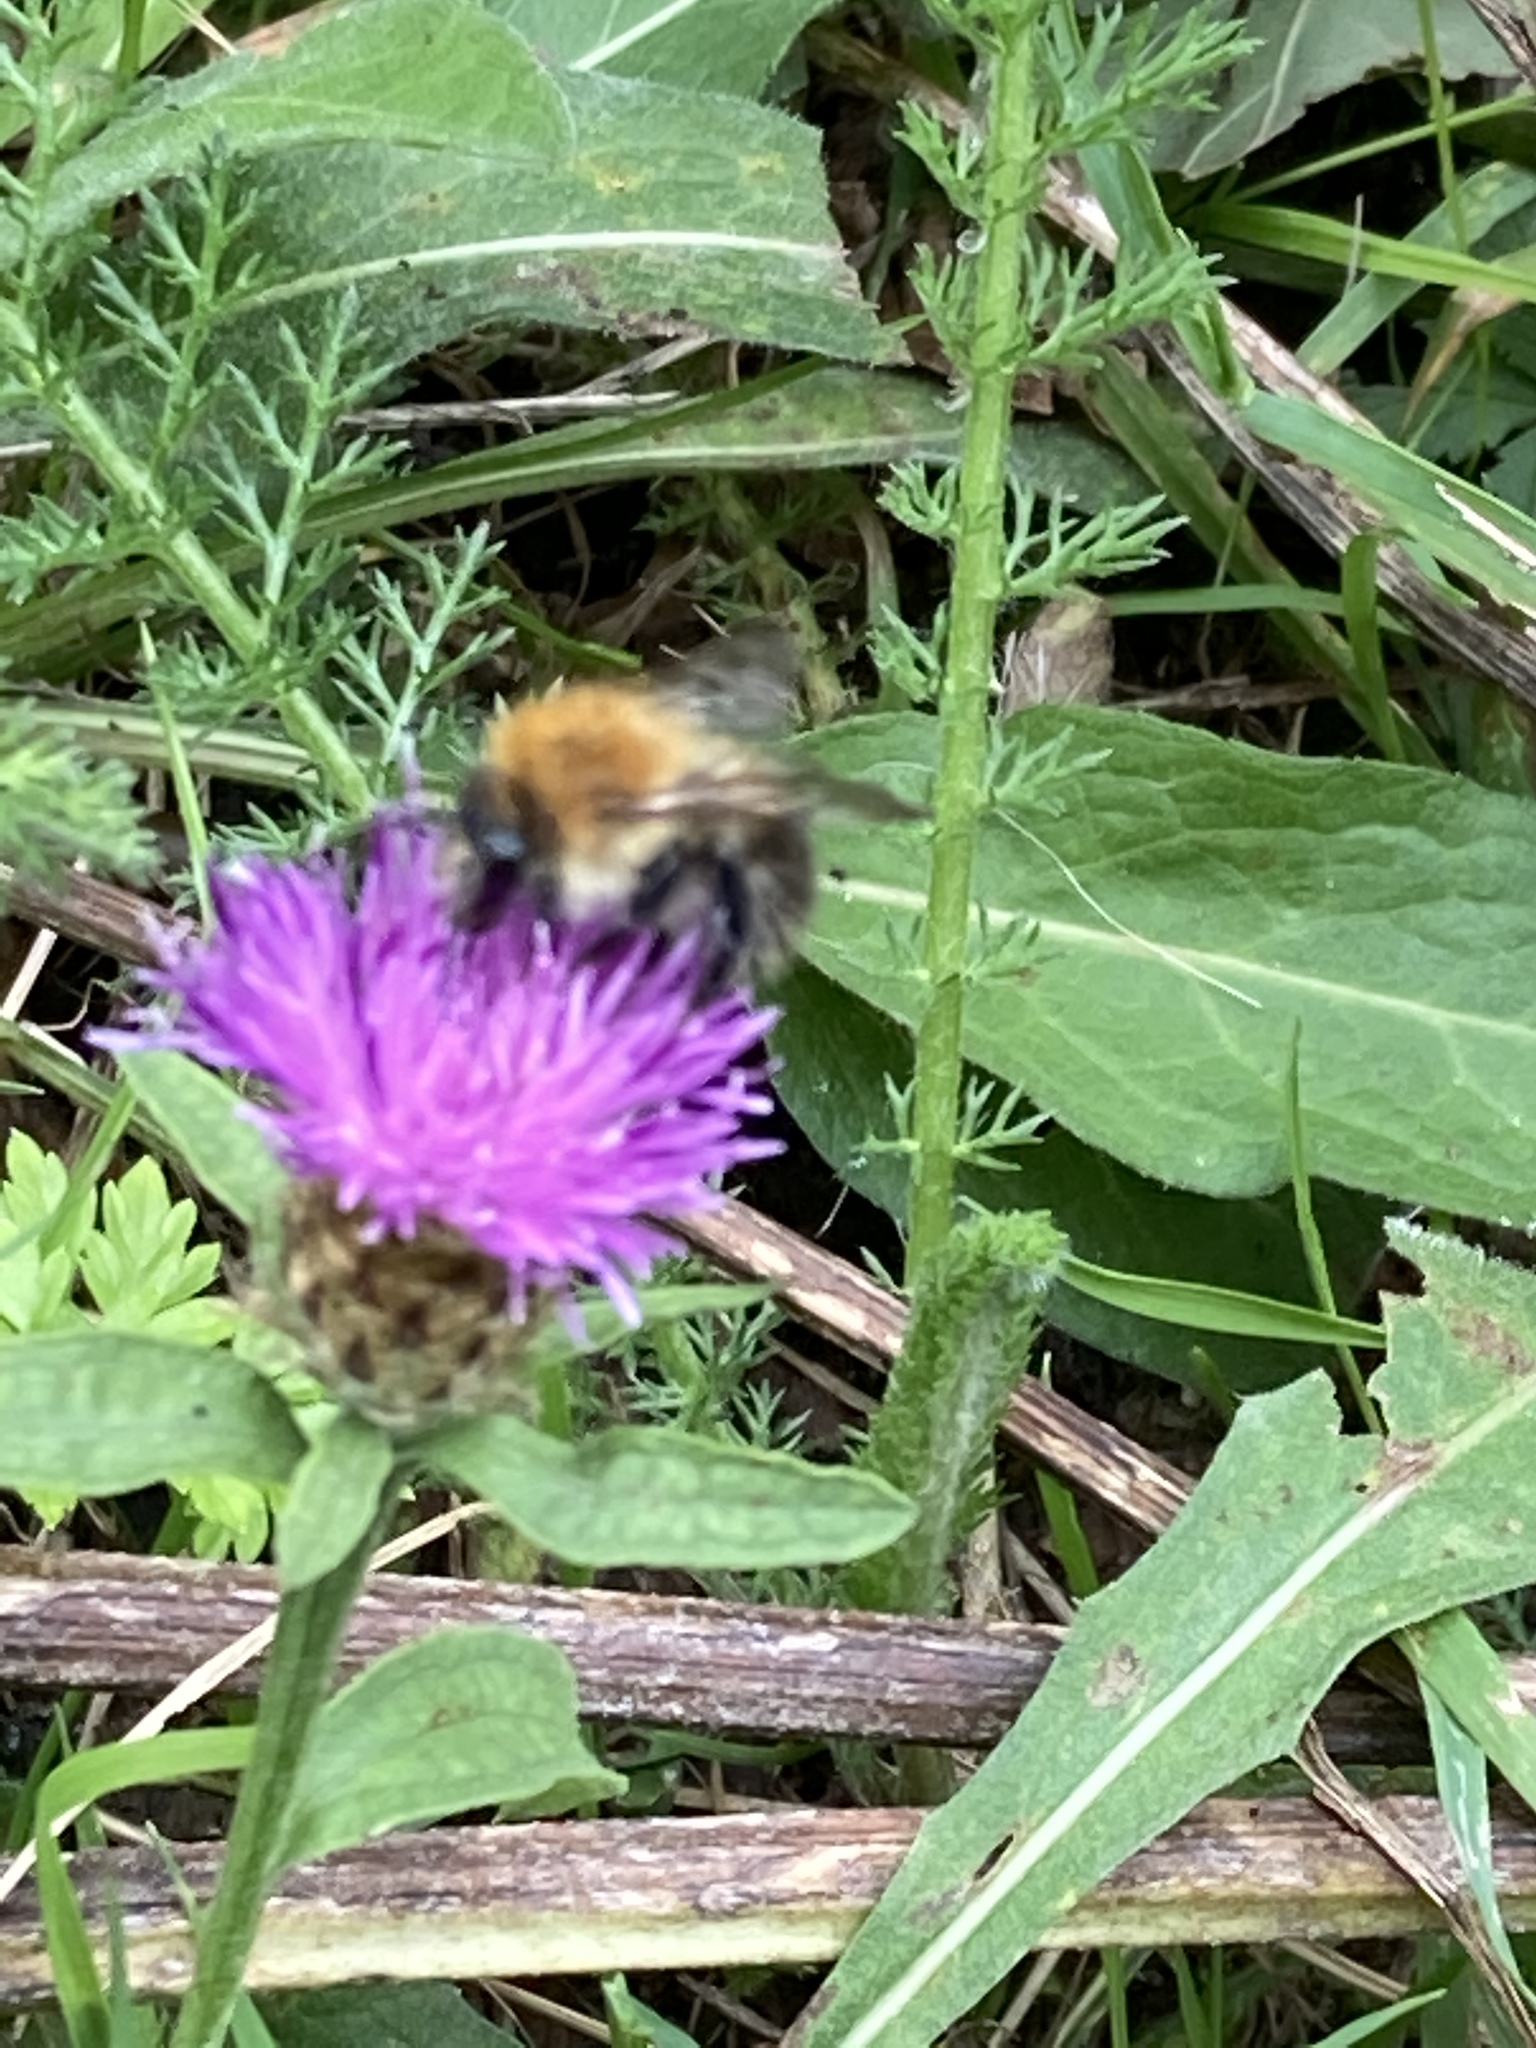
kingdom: Animalia
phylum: Arthropoda
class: Insecta
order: Hymenoptera
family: Apidae
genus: Bombus
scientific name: Bombus pascuorum
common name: Common carder bee
